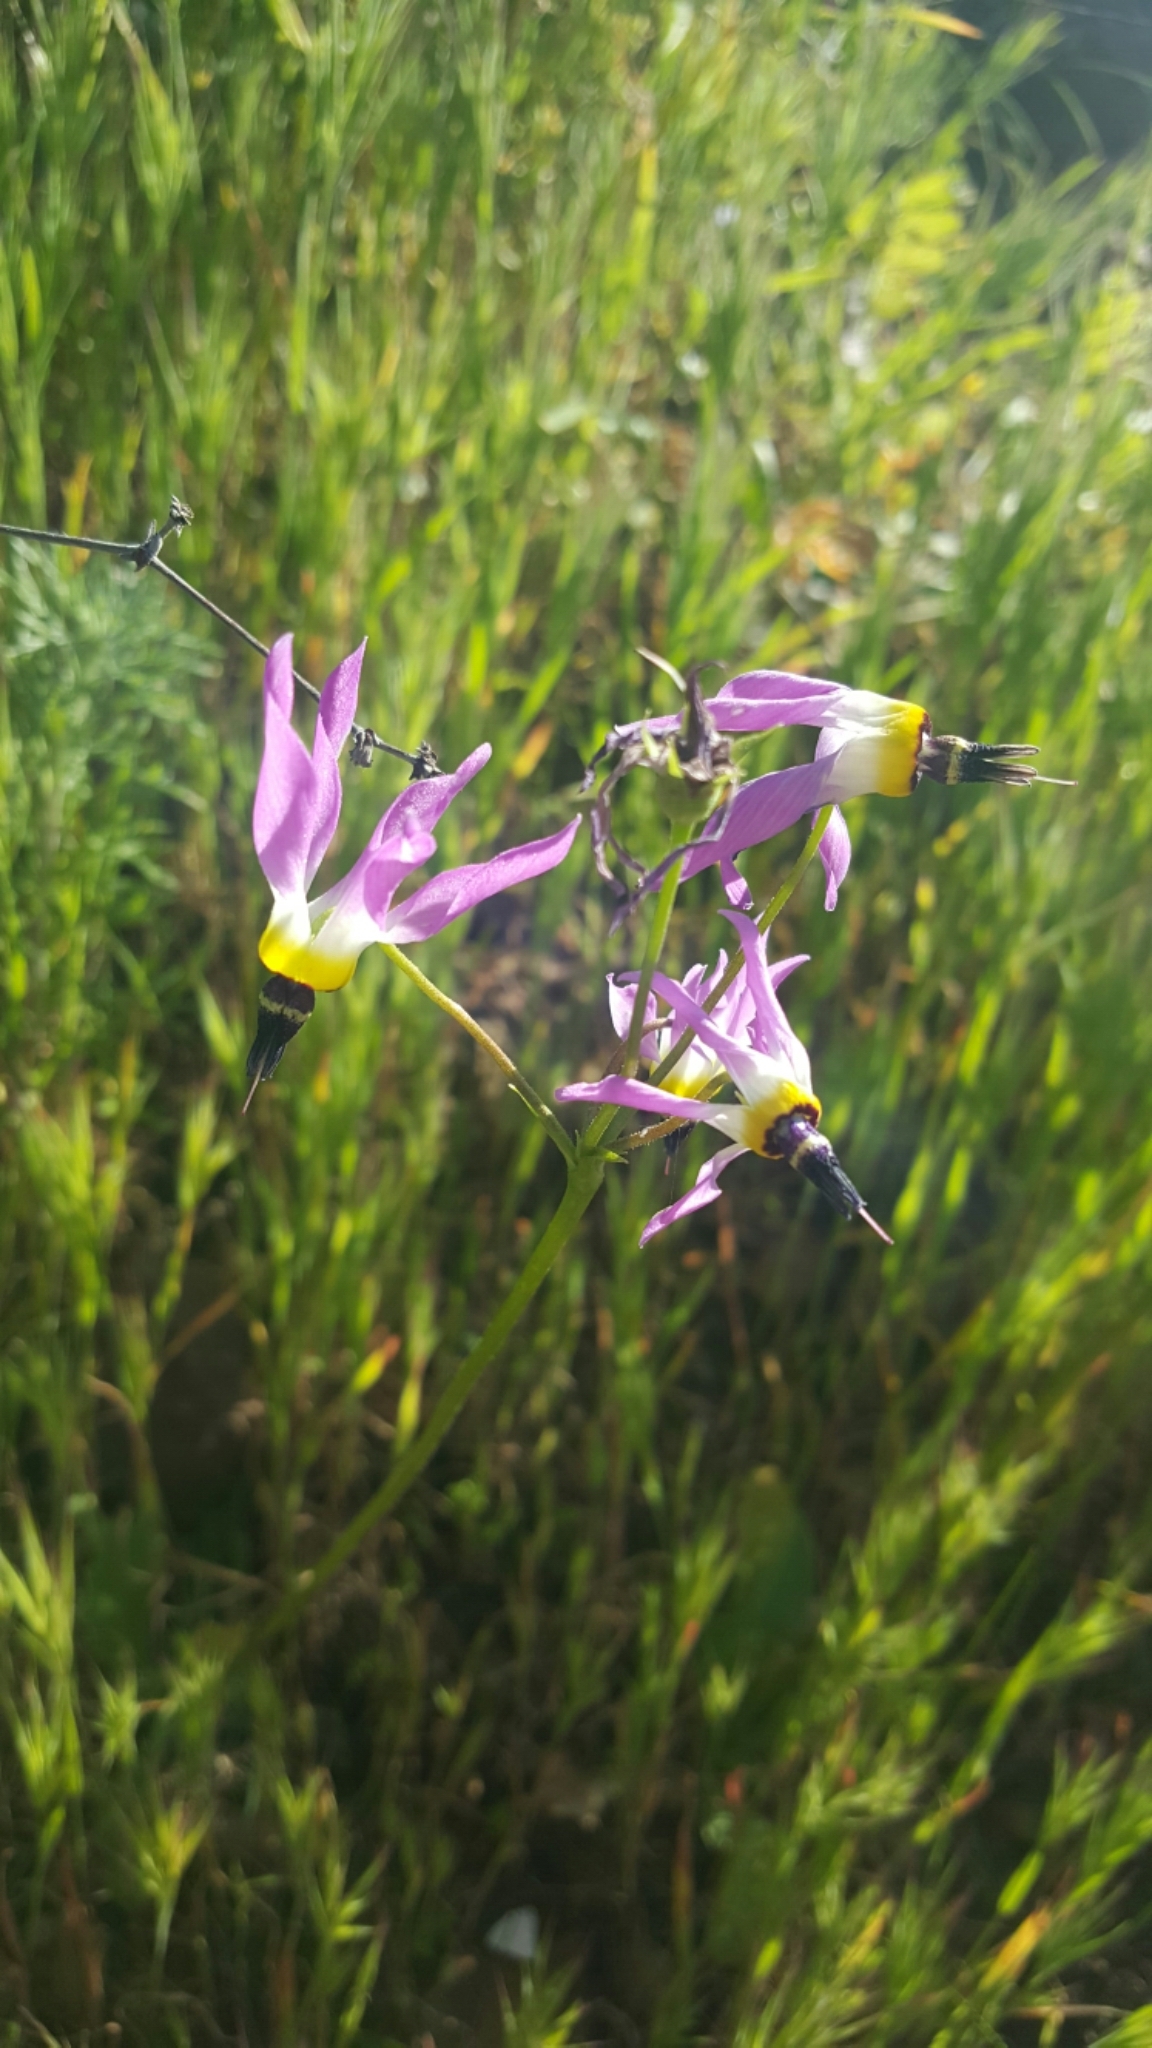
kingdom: Plantae
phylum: Tracheophyta
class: Magnoliopsida
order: Ericales
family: Primulaceae
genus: Dodecatheon
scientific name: Dodecatheon clevelandii
